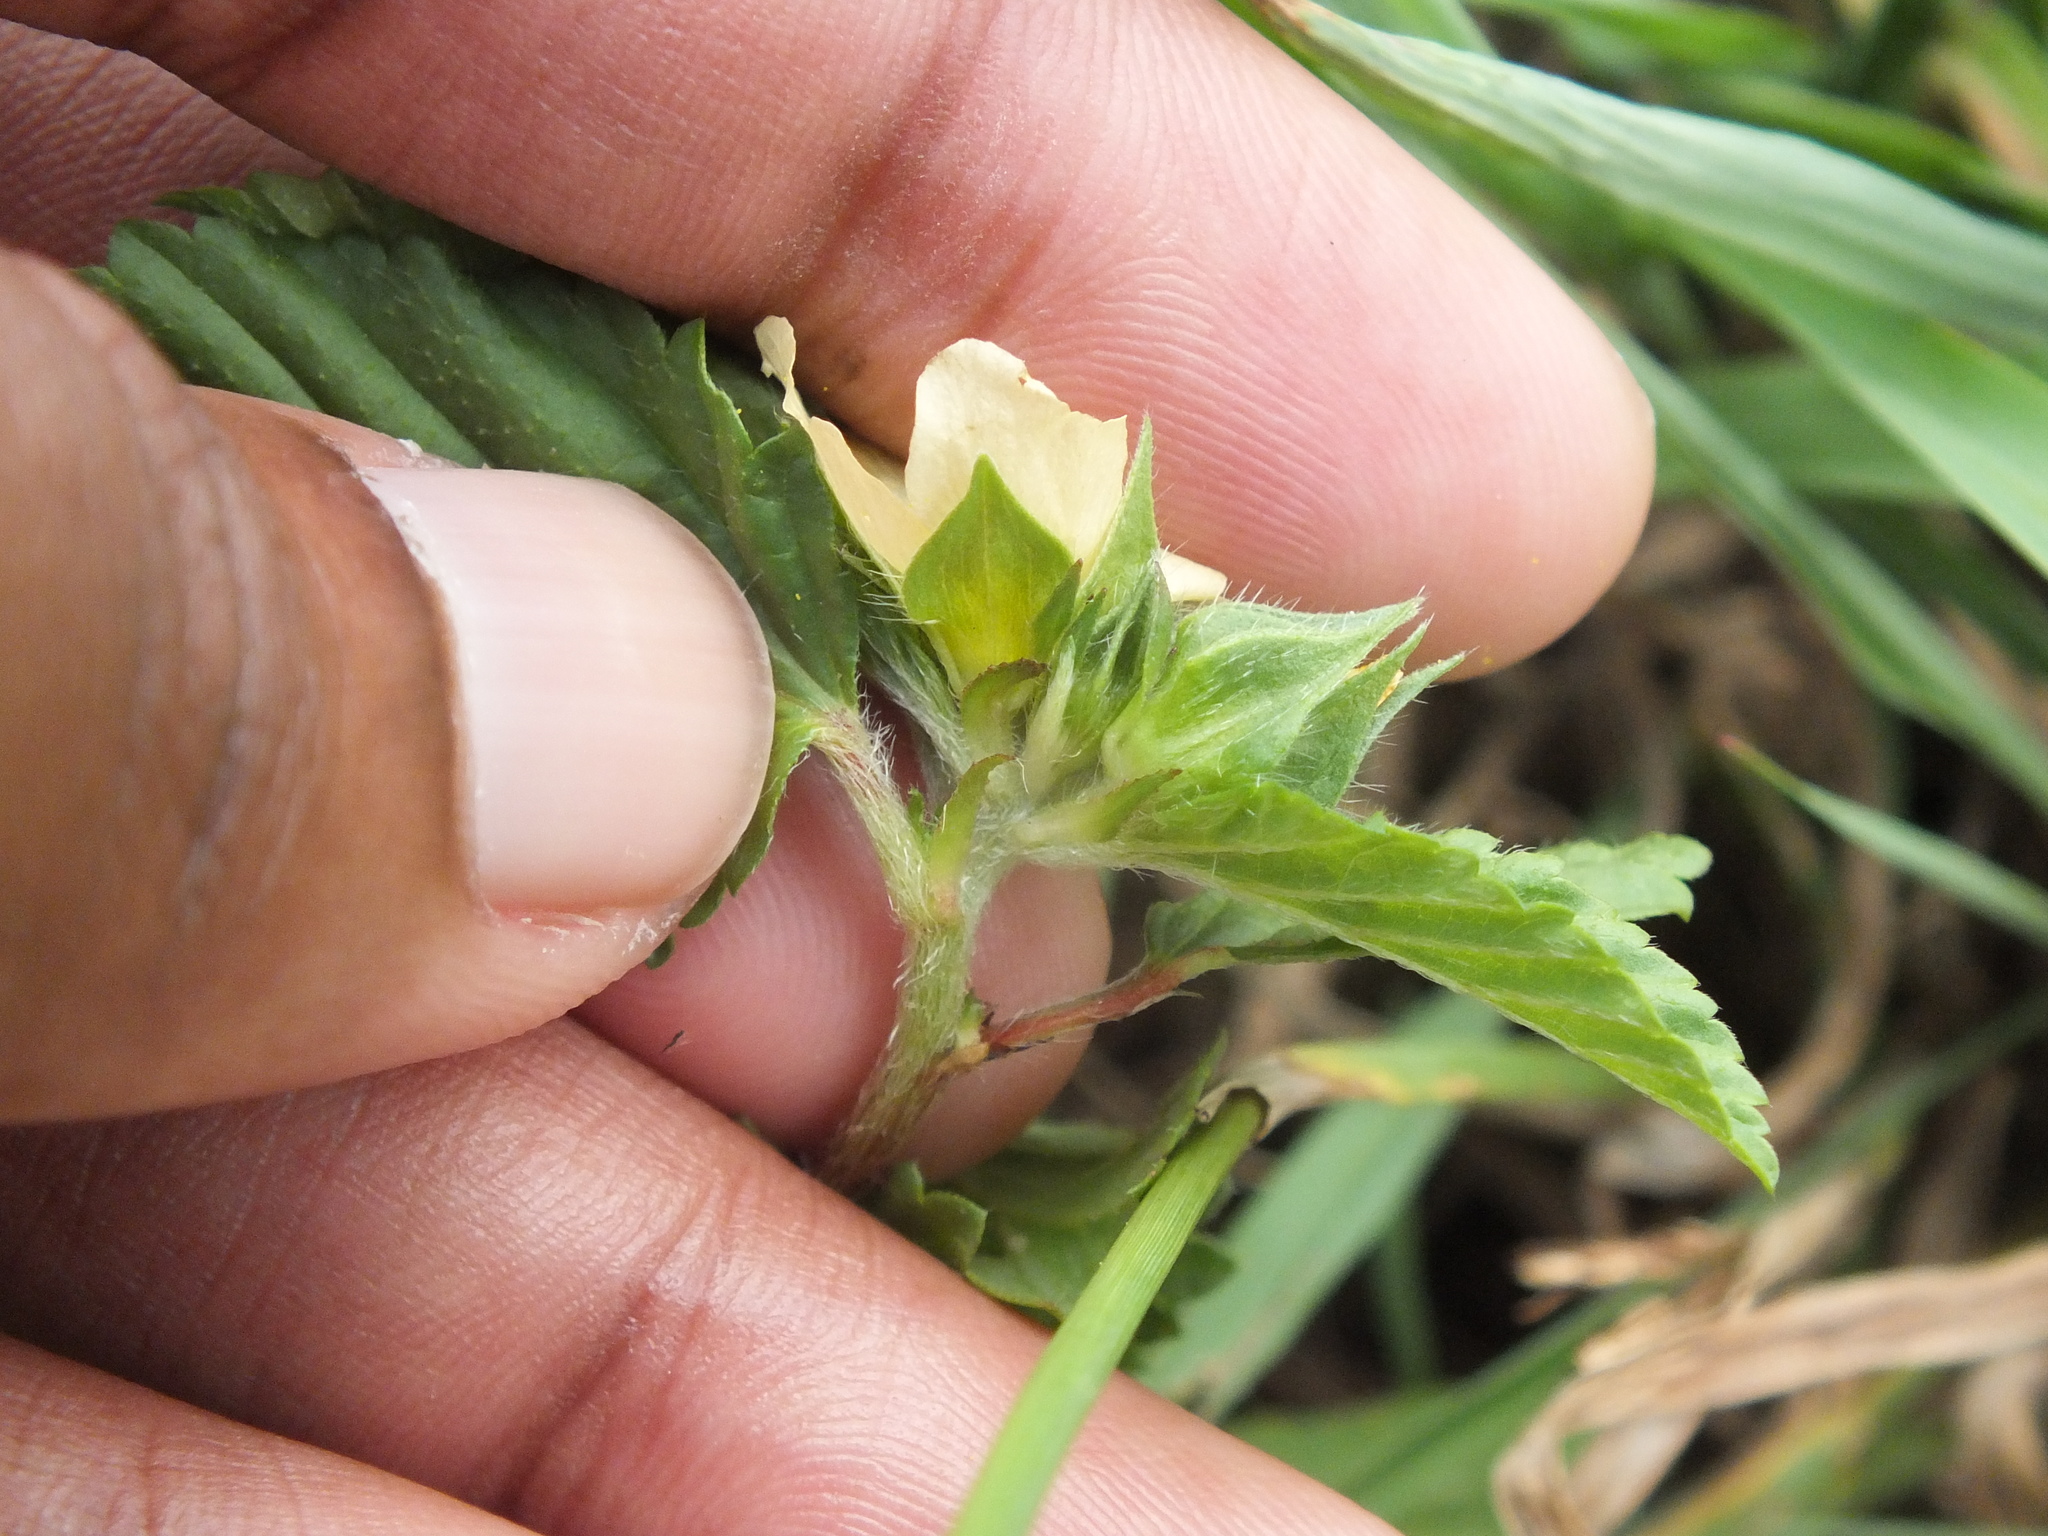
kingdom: Plantae
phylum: Tracheophyta
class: Magnoliopsida
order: Malvales
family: Malvaceae
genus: Malvastrum
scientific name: Malvastrum coromandelianum
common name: Threelobe false mallow
